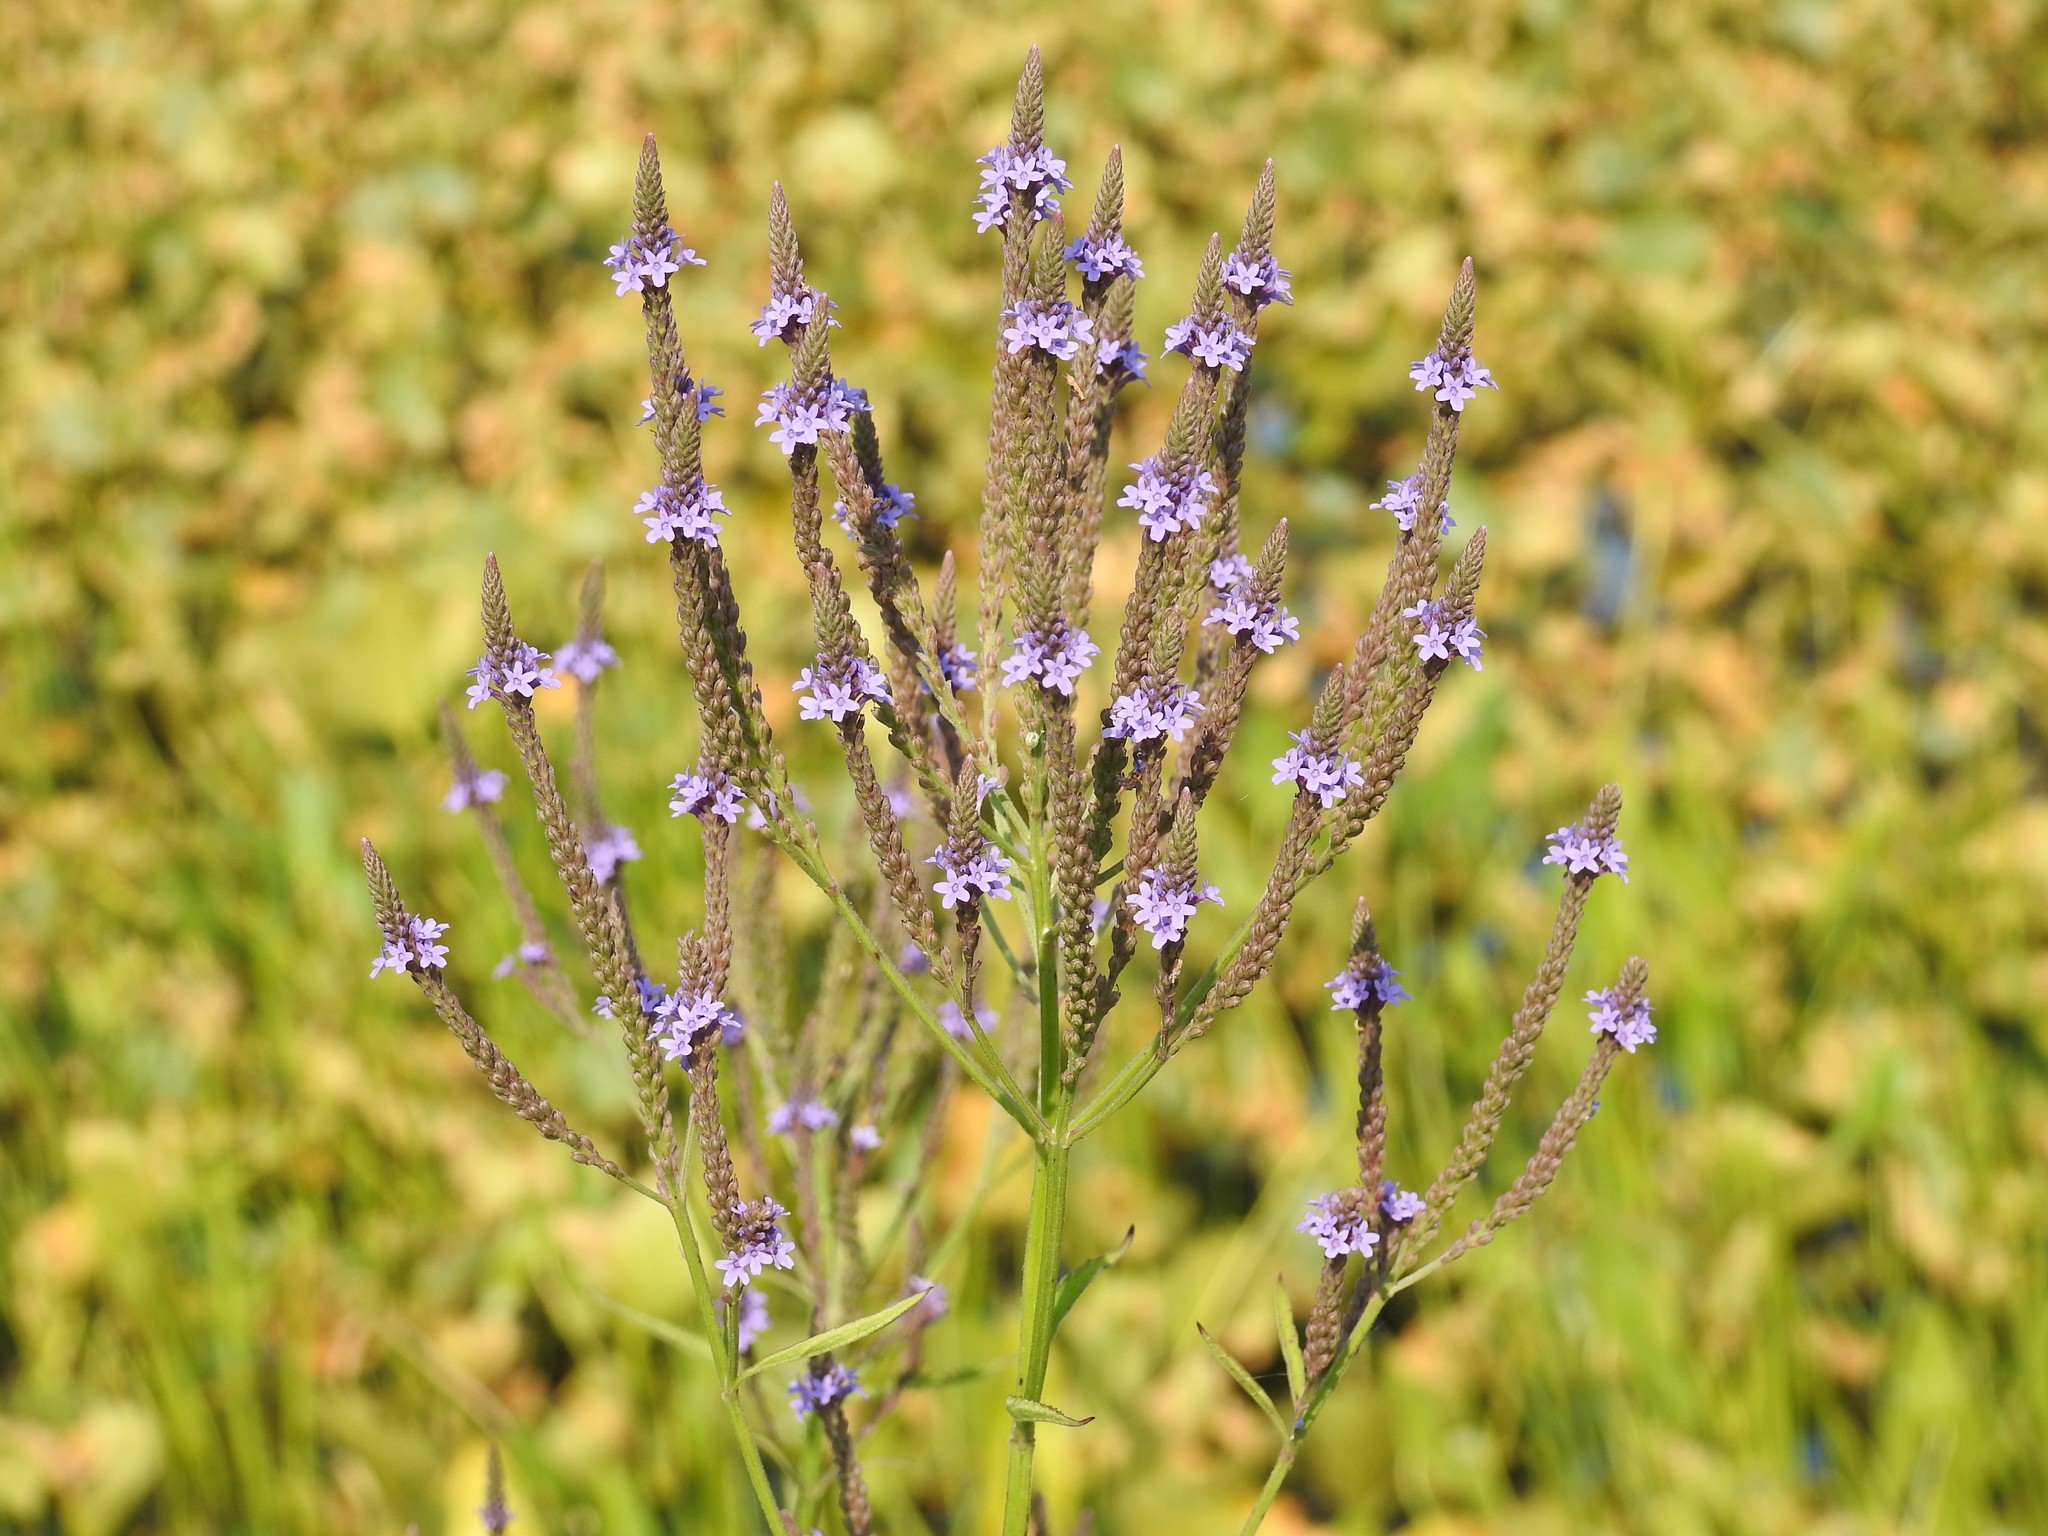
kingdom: Plantae
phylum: Tracheophyta
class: Magnoliopsida
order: Lamiales
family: Verbenaceae
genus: Verbena
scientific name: Verbena hastata
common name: American blue vervain
